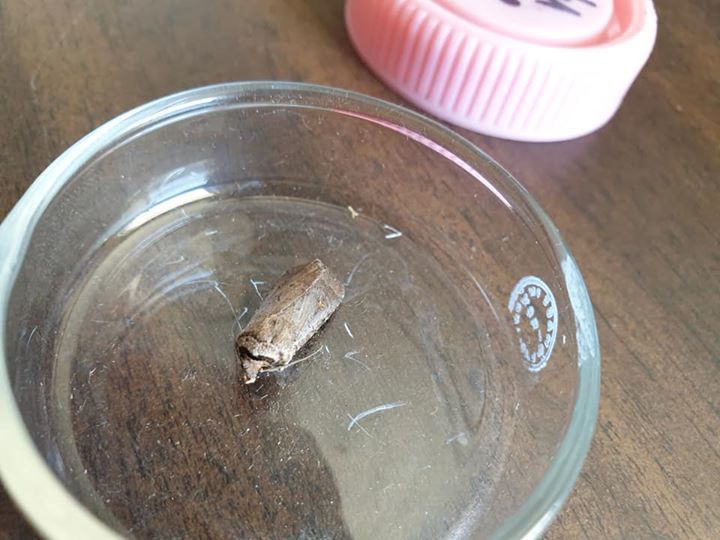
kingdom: Animalia
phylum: Arthropoda
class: Insecta
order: Lepidoptera
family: Noctuidae
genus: Proteuxoa
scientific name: Proteuxoa tetronycha
